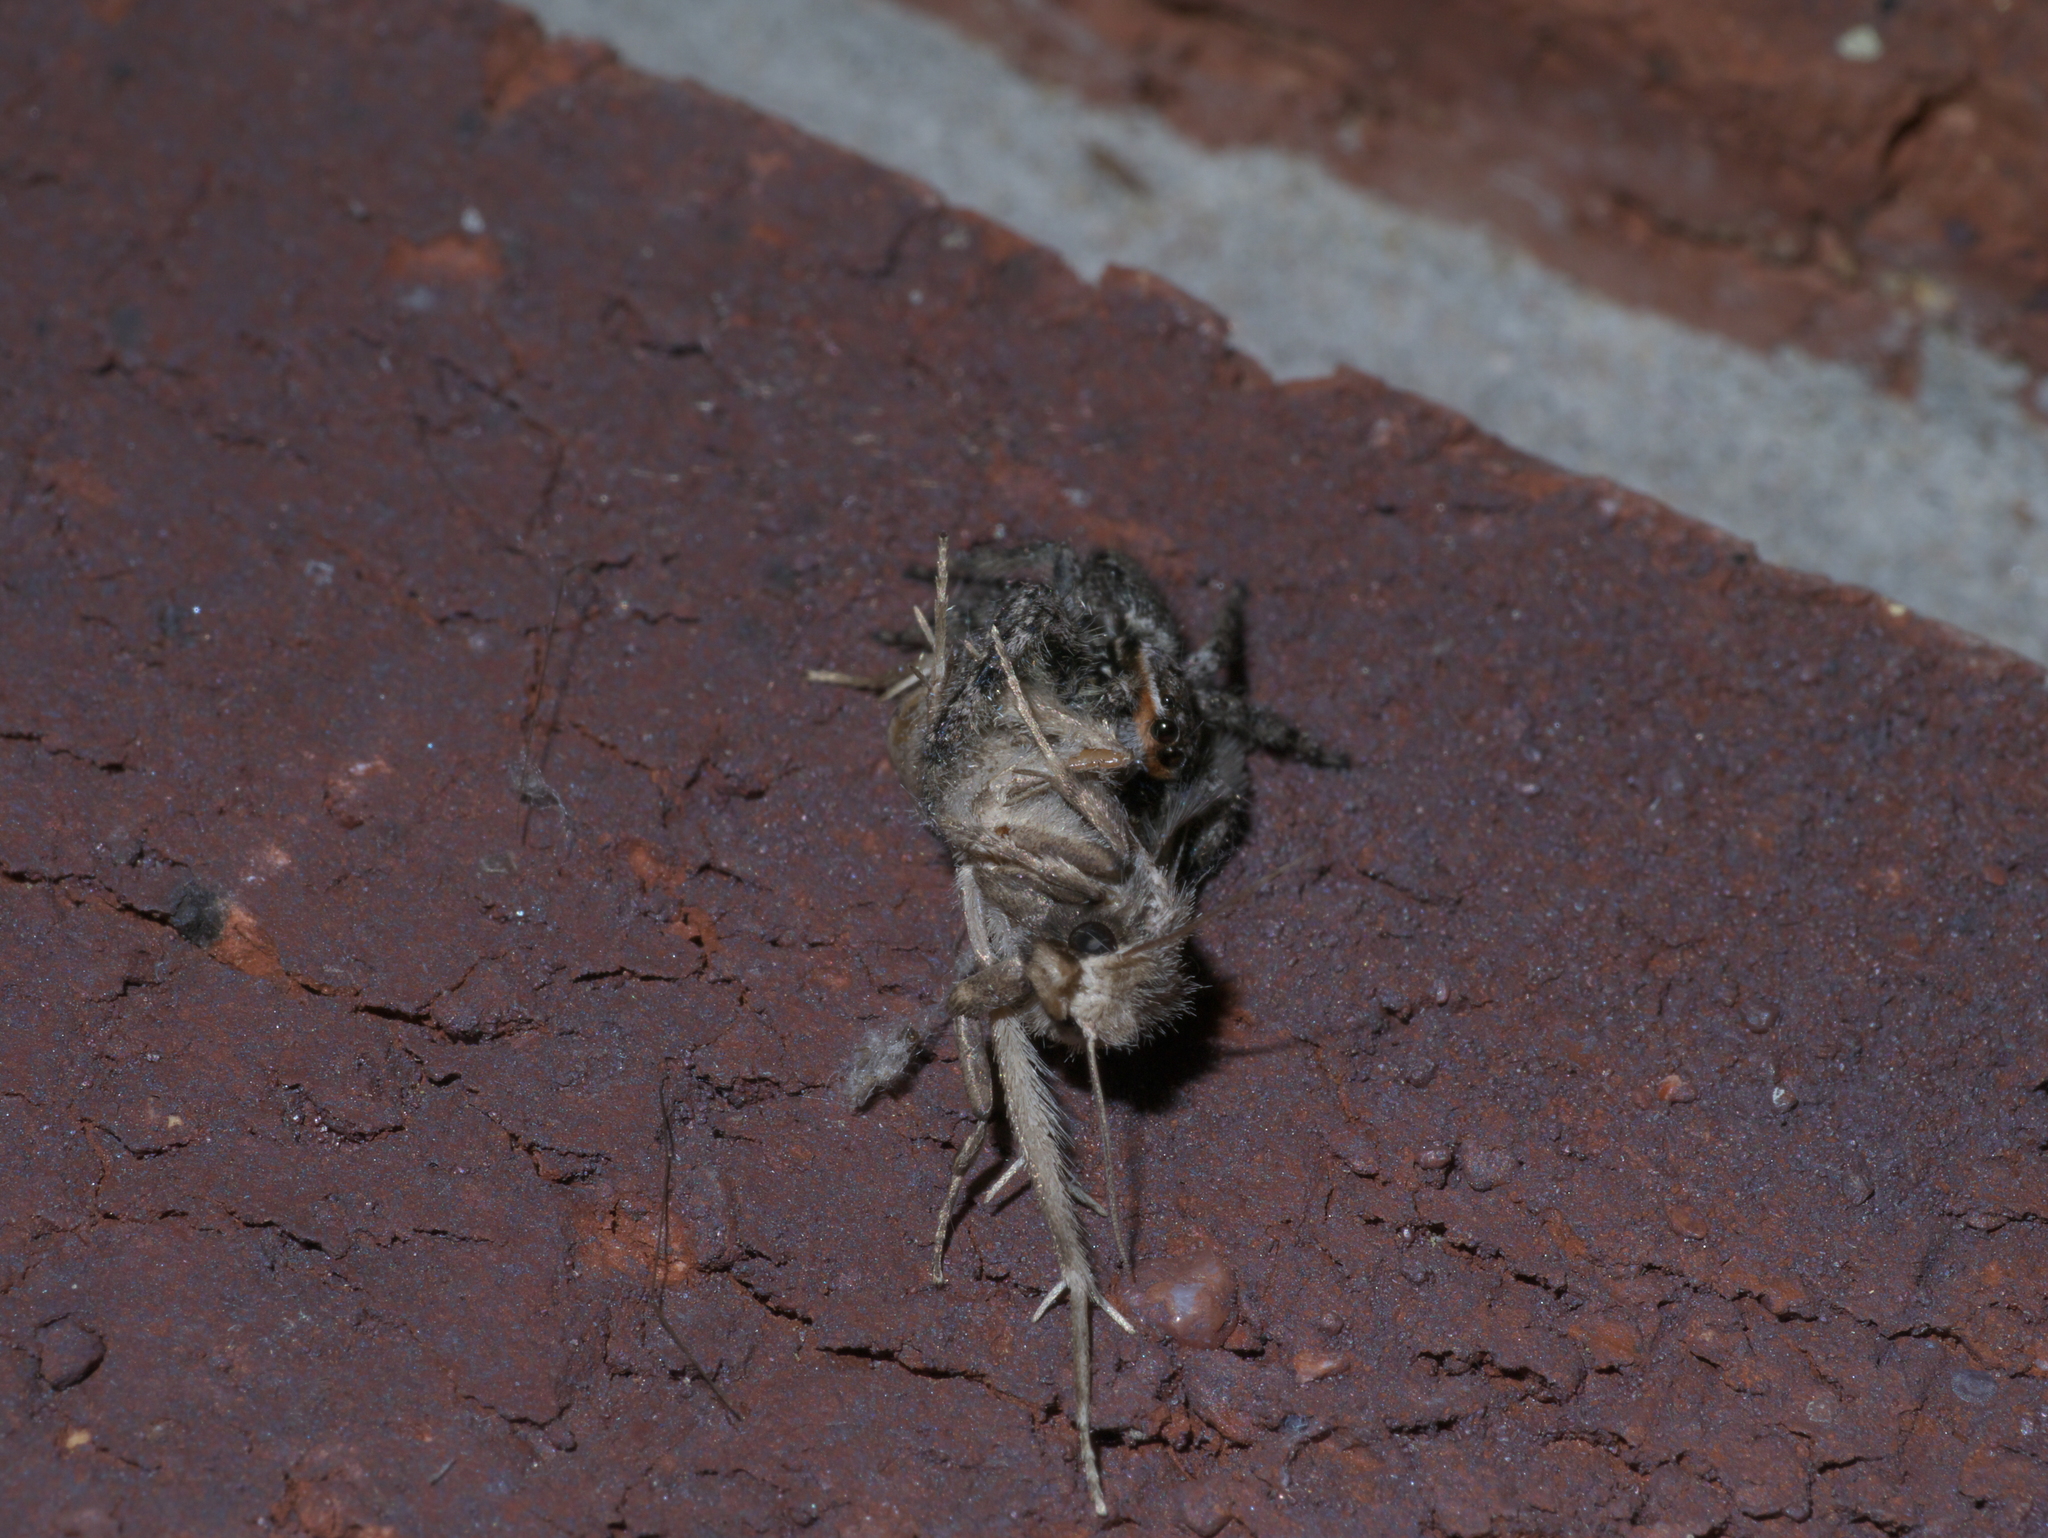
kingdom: Animalia
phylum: Arthropoda
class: Arachnida
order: Araneae
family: Salticidae
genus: Platycryptus
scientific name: Platycryptus undatus
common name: Tan jumping spider
